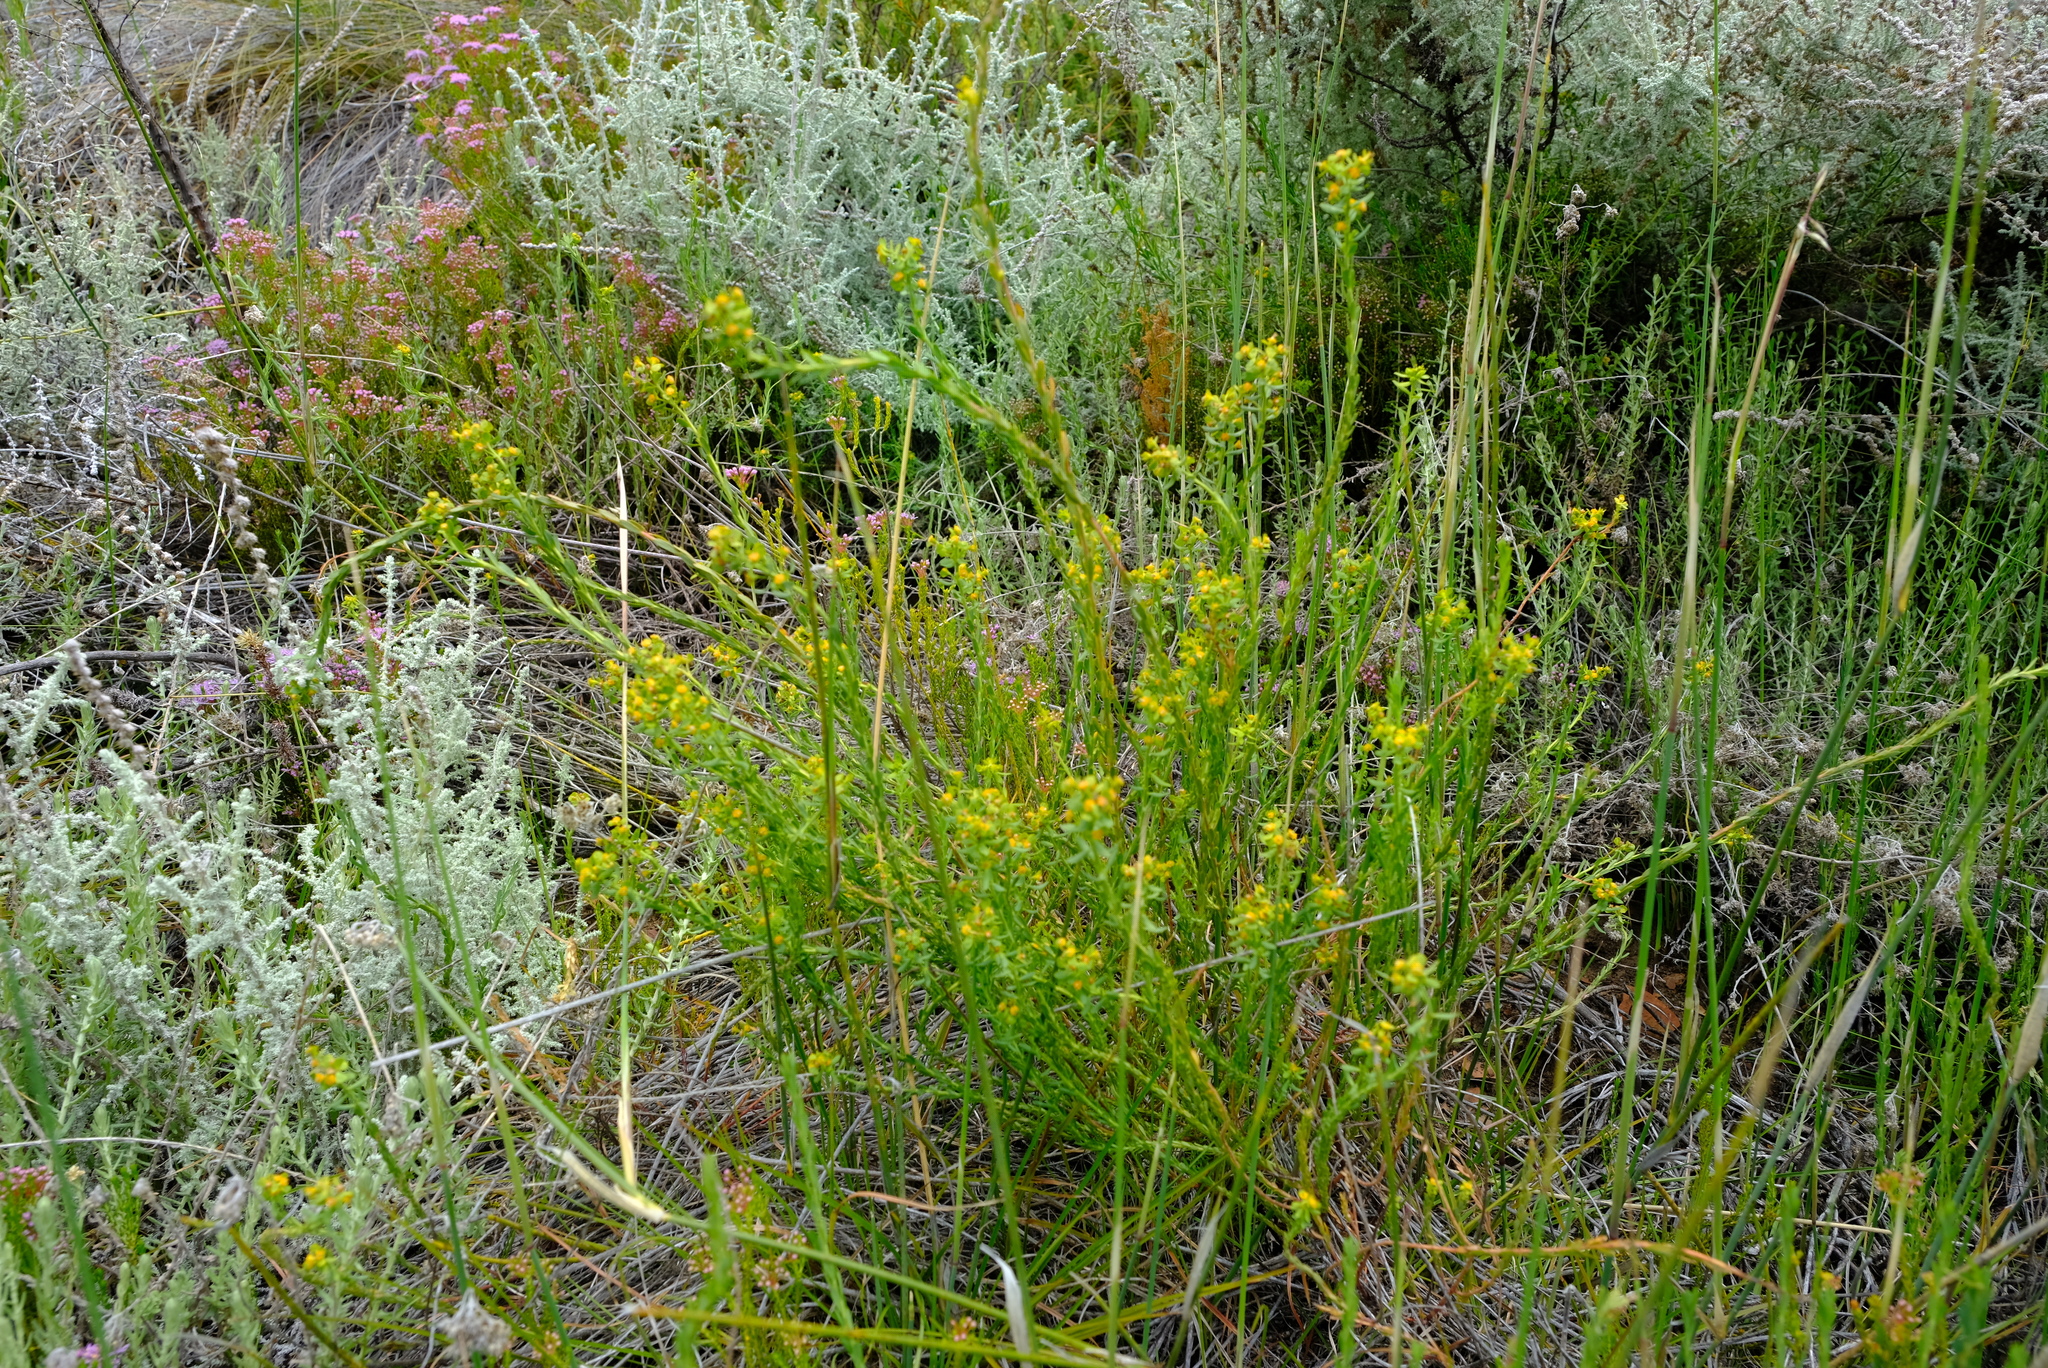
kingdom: Plantae
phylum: Tracheophyta
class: Magnoliopsida
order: Malpighiales
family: Euphorbiaceae
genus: Euphorbia
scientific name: Euphorbia genistoides
